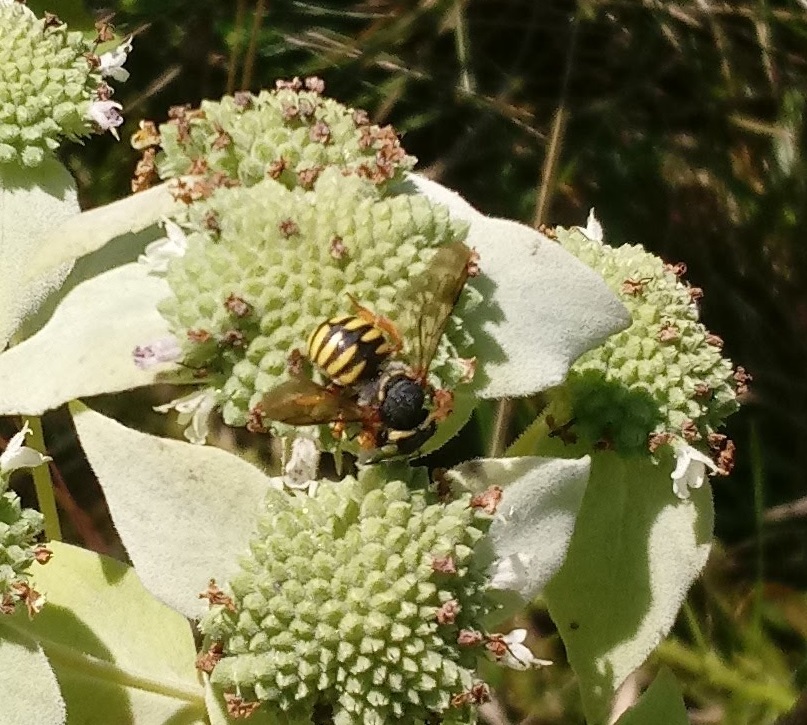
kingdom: Animalia
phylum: Arthropoda
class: Insecta
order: Hymenoptera
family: Megachilidae
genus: Anthidium
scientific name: Anthidium oblongatum
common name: Oblong wool carder bee
